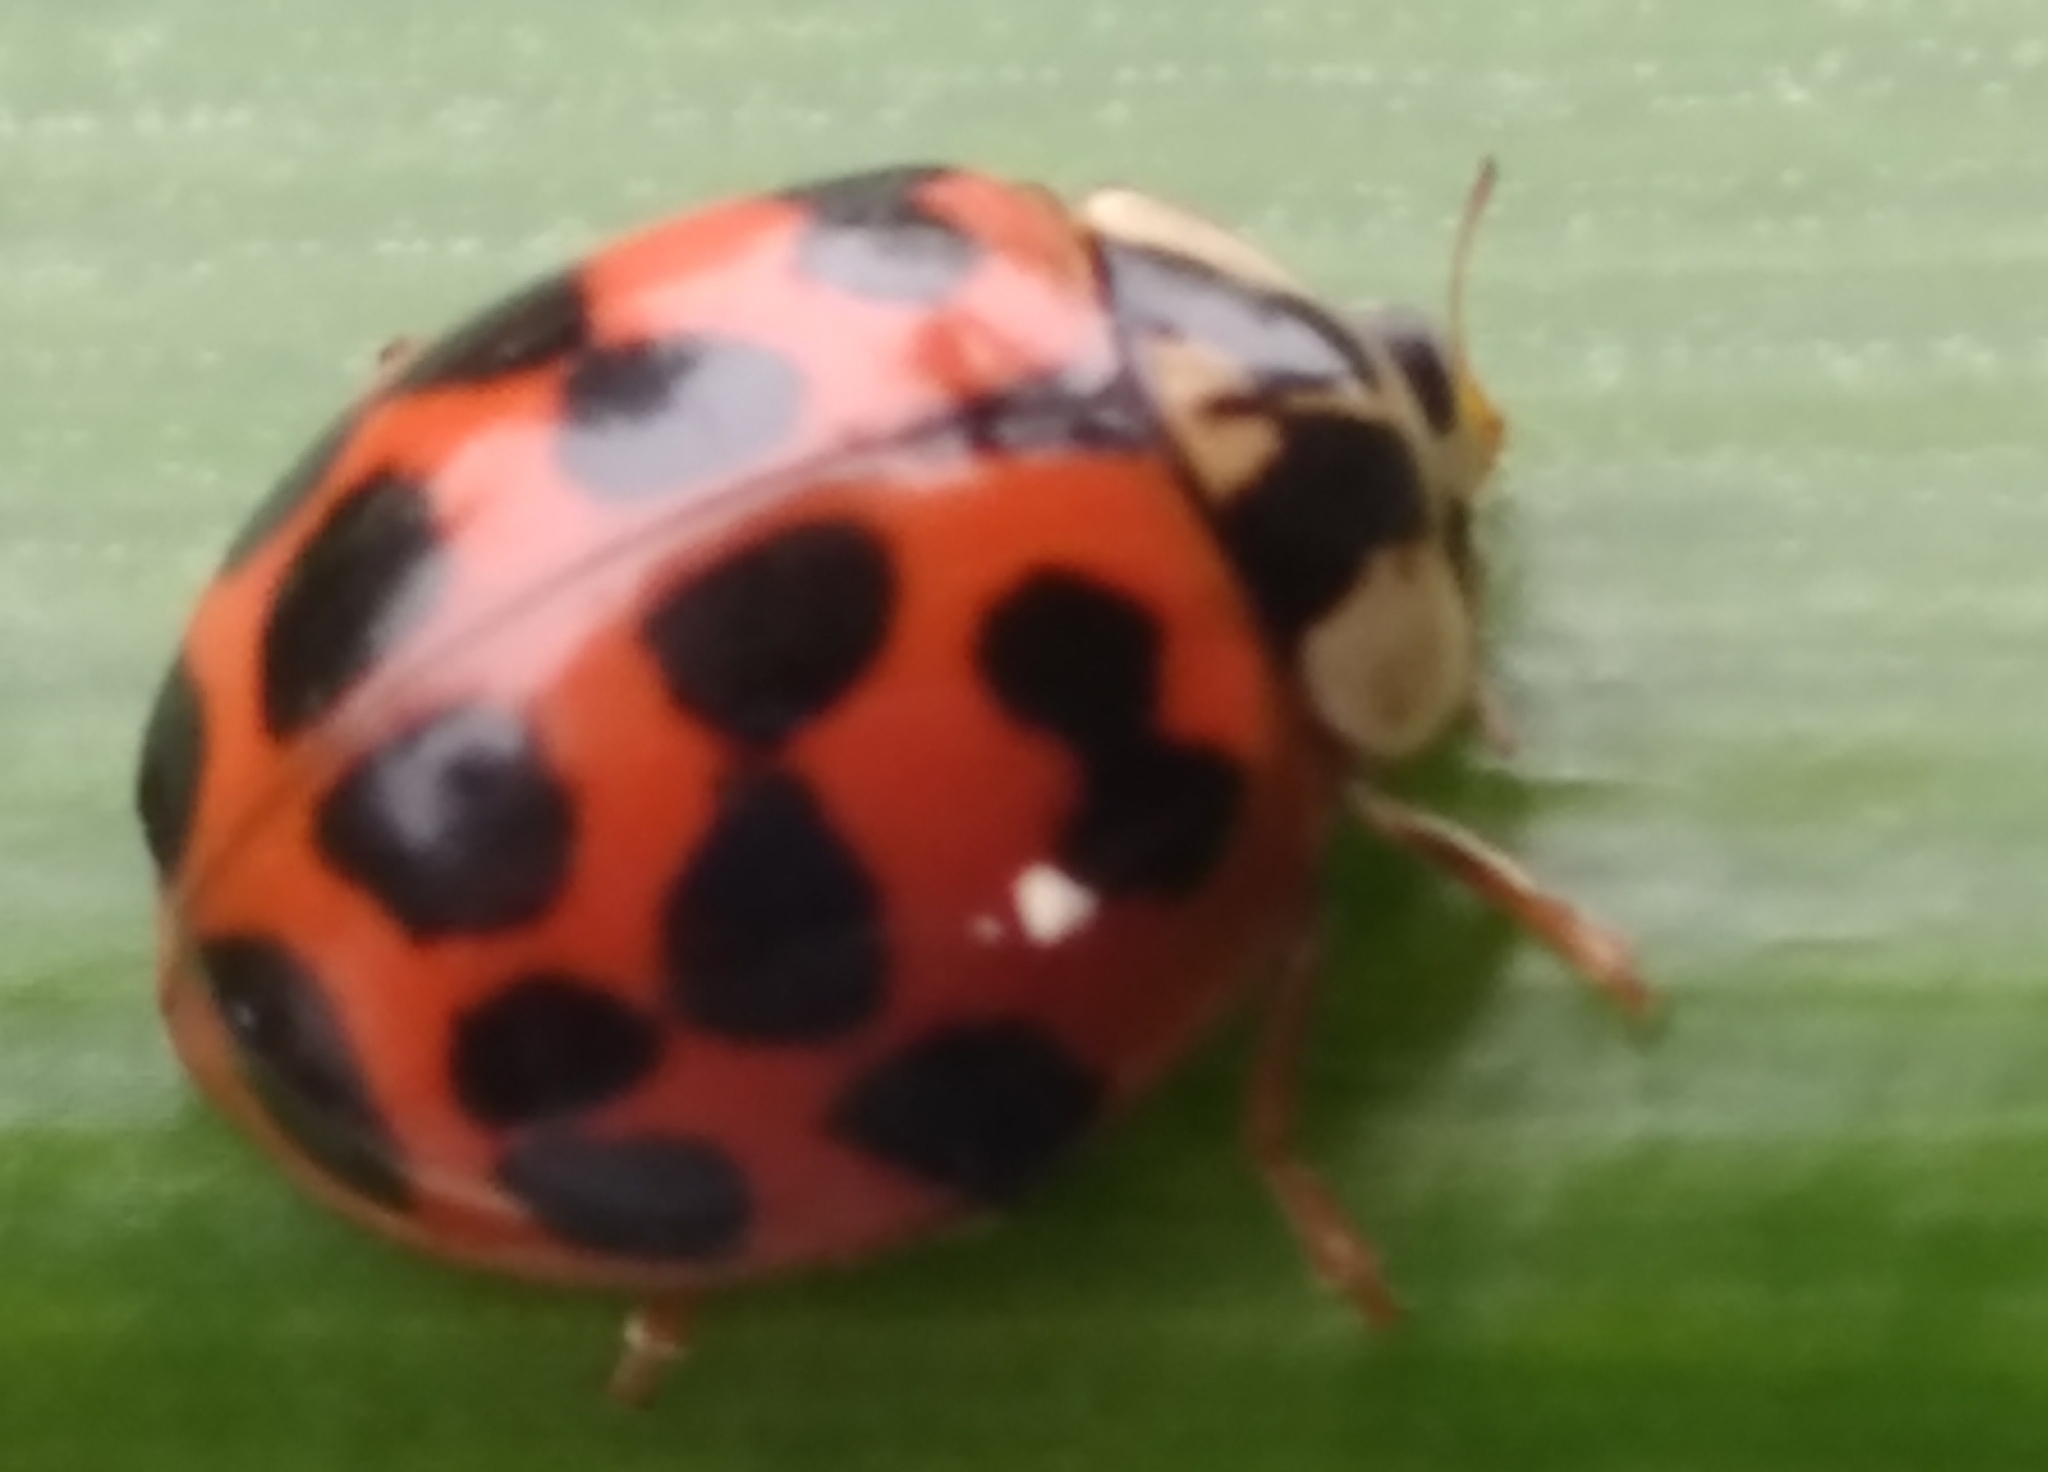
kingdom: Animalia
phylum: Arthropoda
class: Insecta
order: Coleoptera
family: Coccinellidae
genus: Harmonia
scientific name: Harmonia axyridis
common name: Harlequin ladybird
